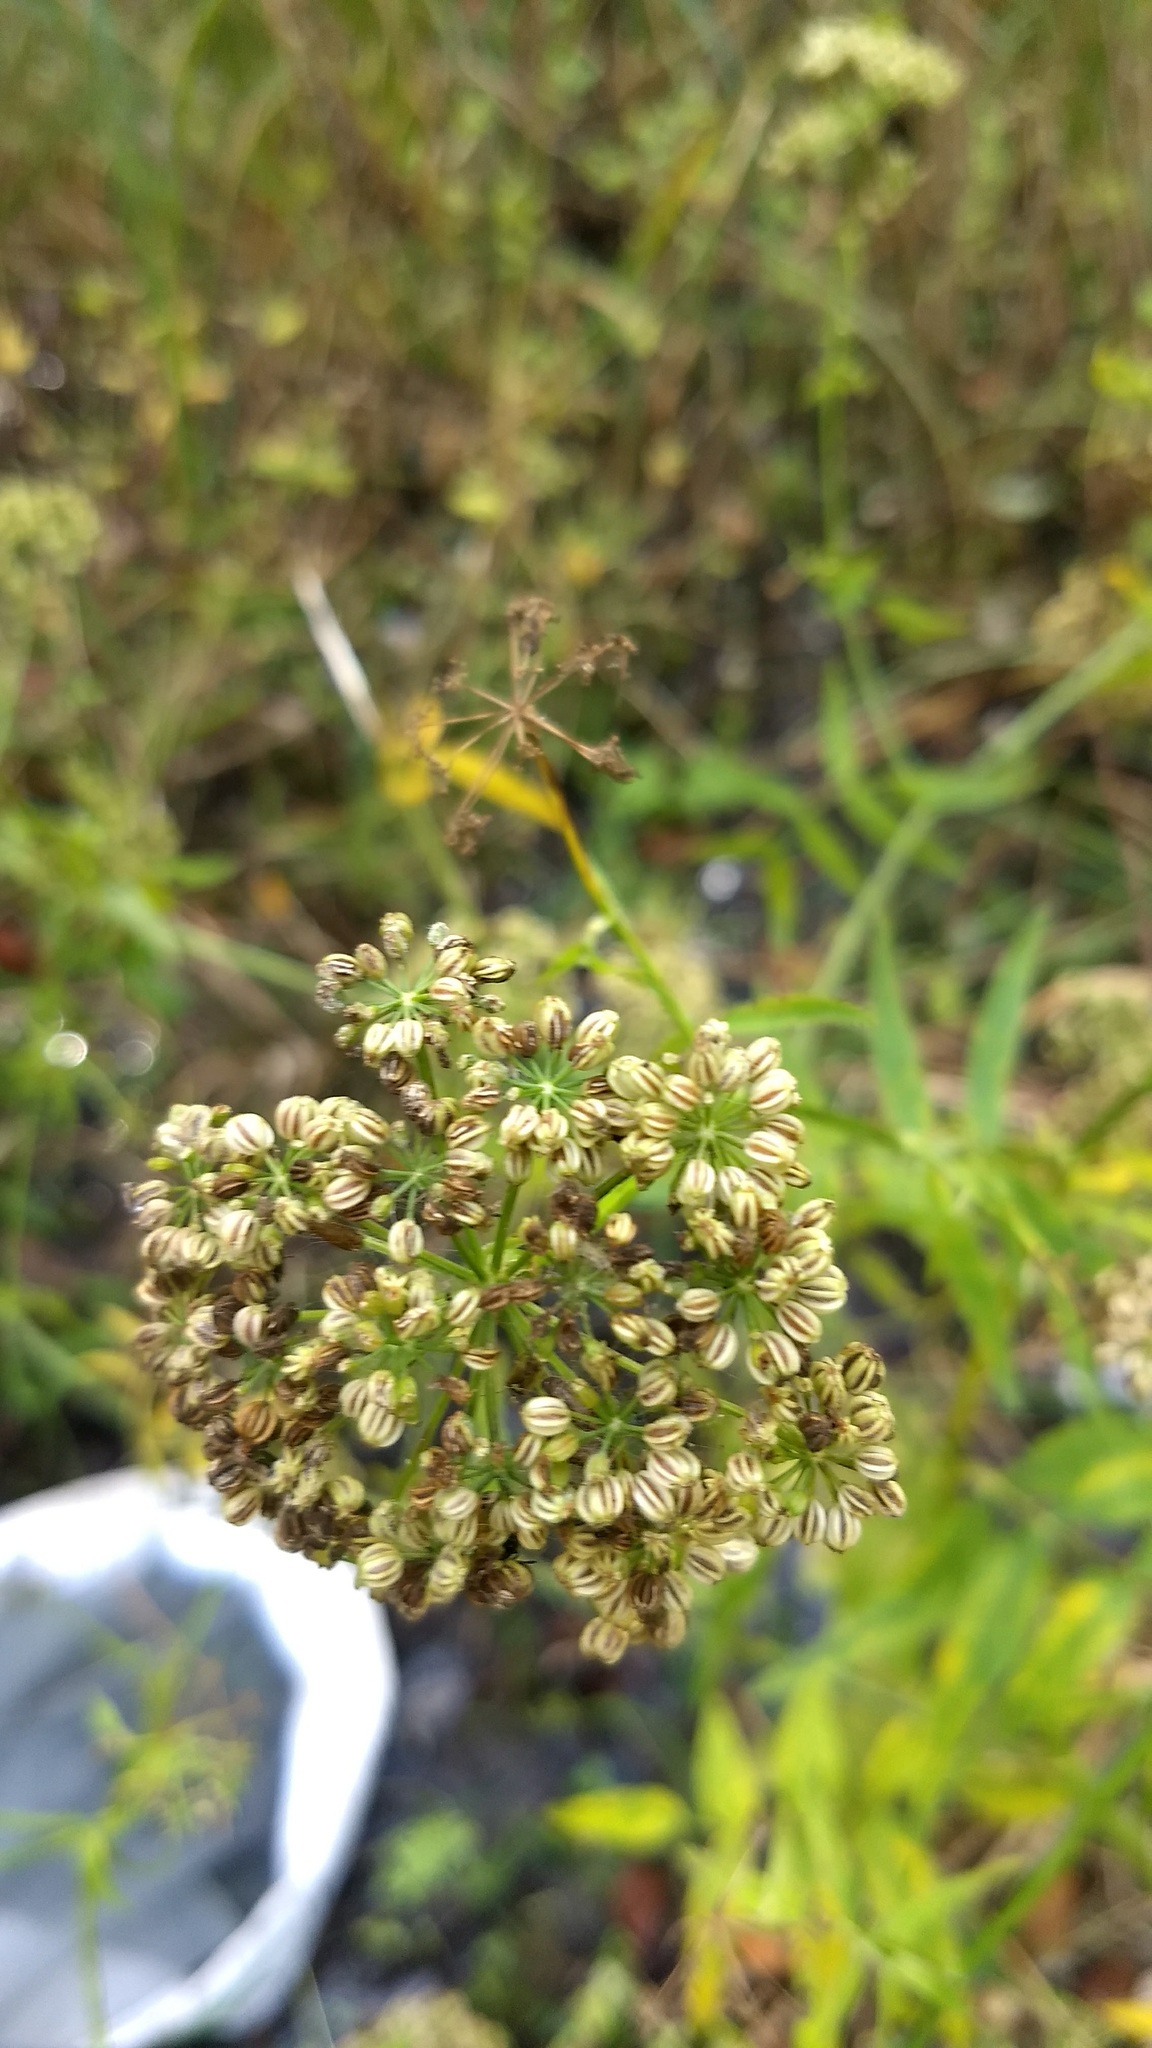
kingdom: Plantae
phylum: Tracheophyta
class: Magnoliopsida
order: Apiales
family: Apiaceae
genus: Sium
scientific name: Sium suave
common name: Hemlock water-parsnip
